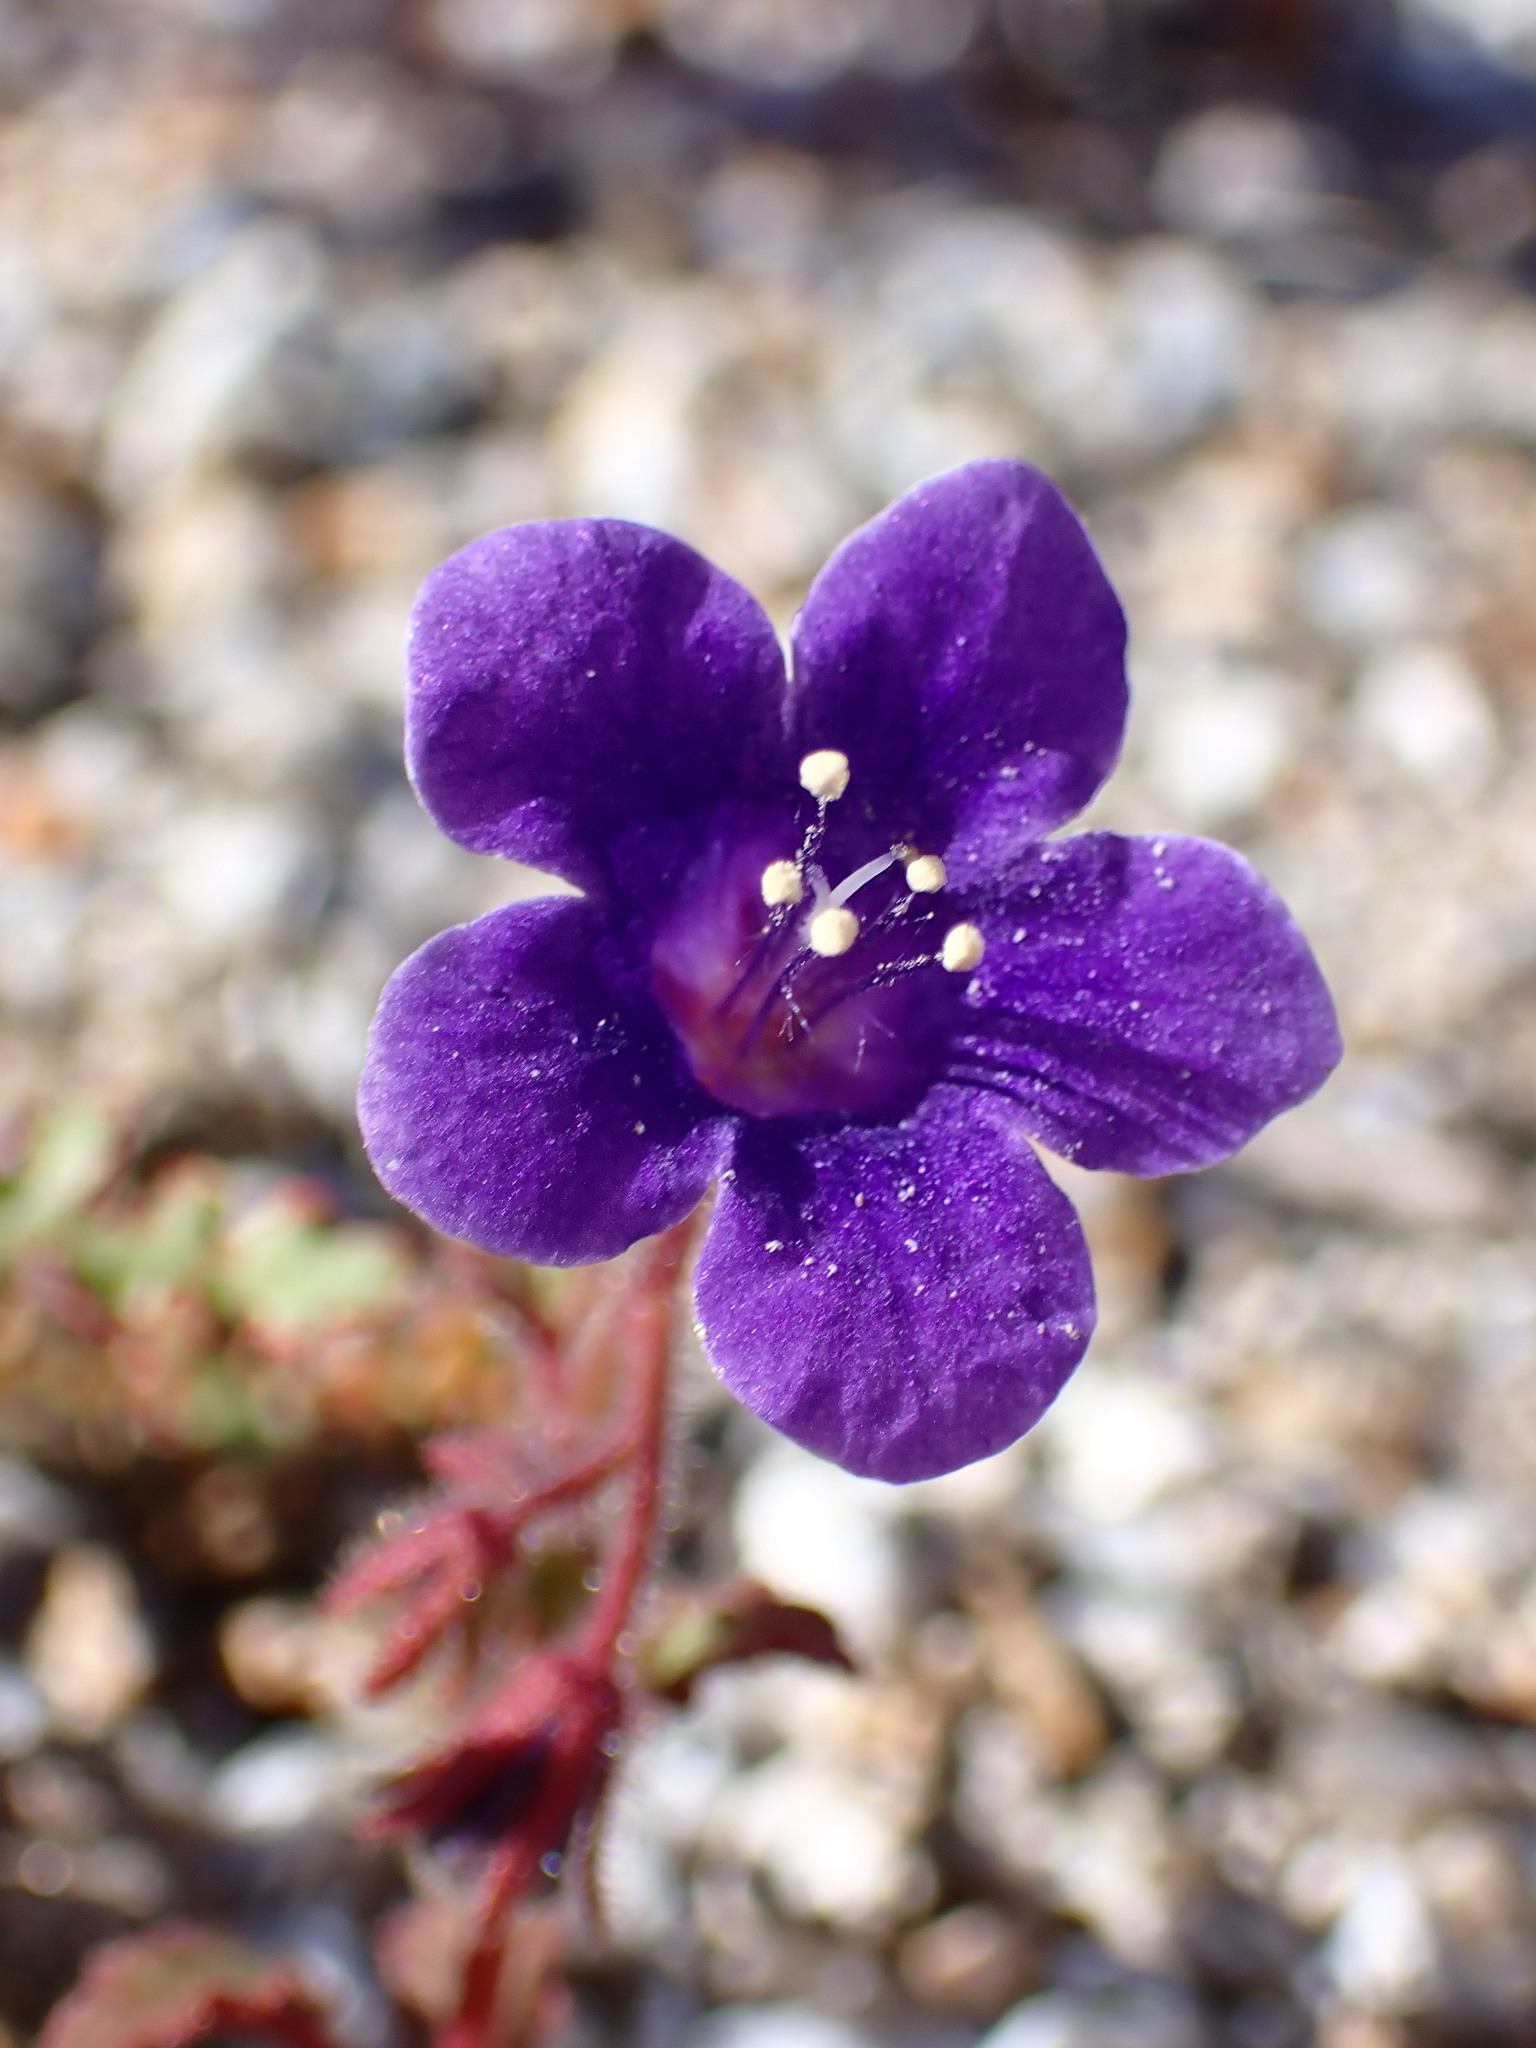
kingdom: Plantae
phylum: Tracheophyta
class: Magnoliopsida
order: Boraginales
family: Hydrophyllaceae
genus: Phacelia
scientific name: Phacelia minor
